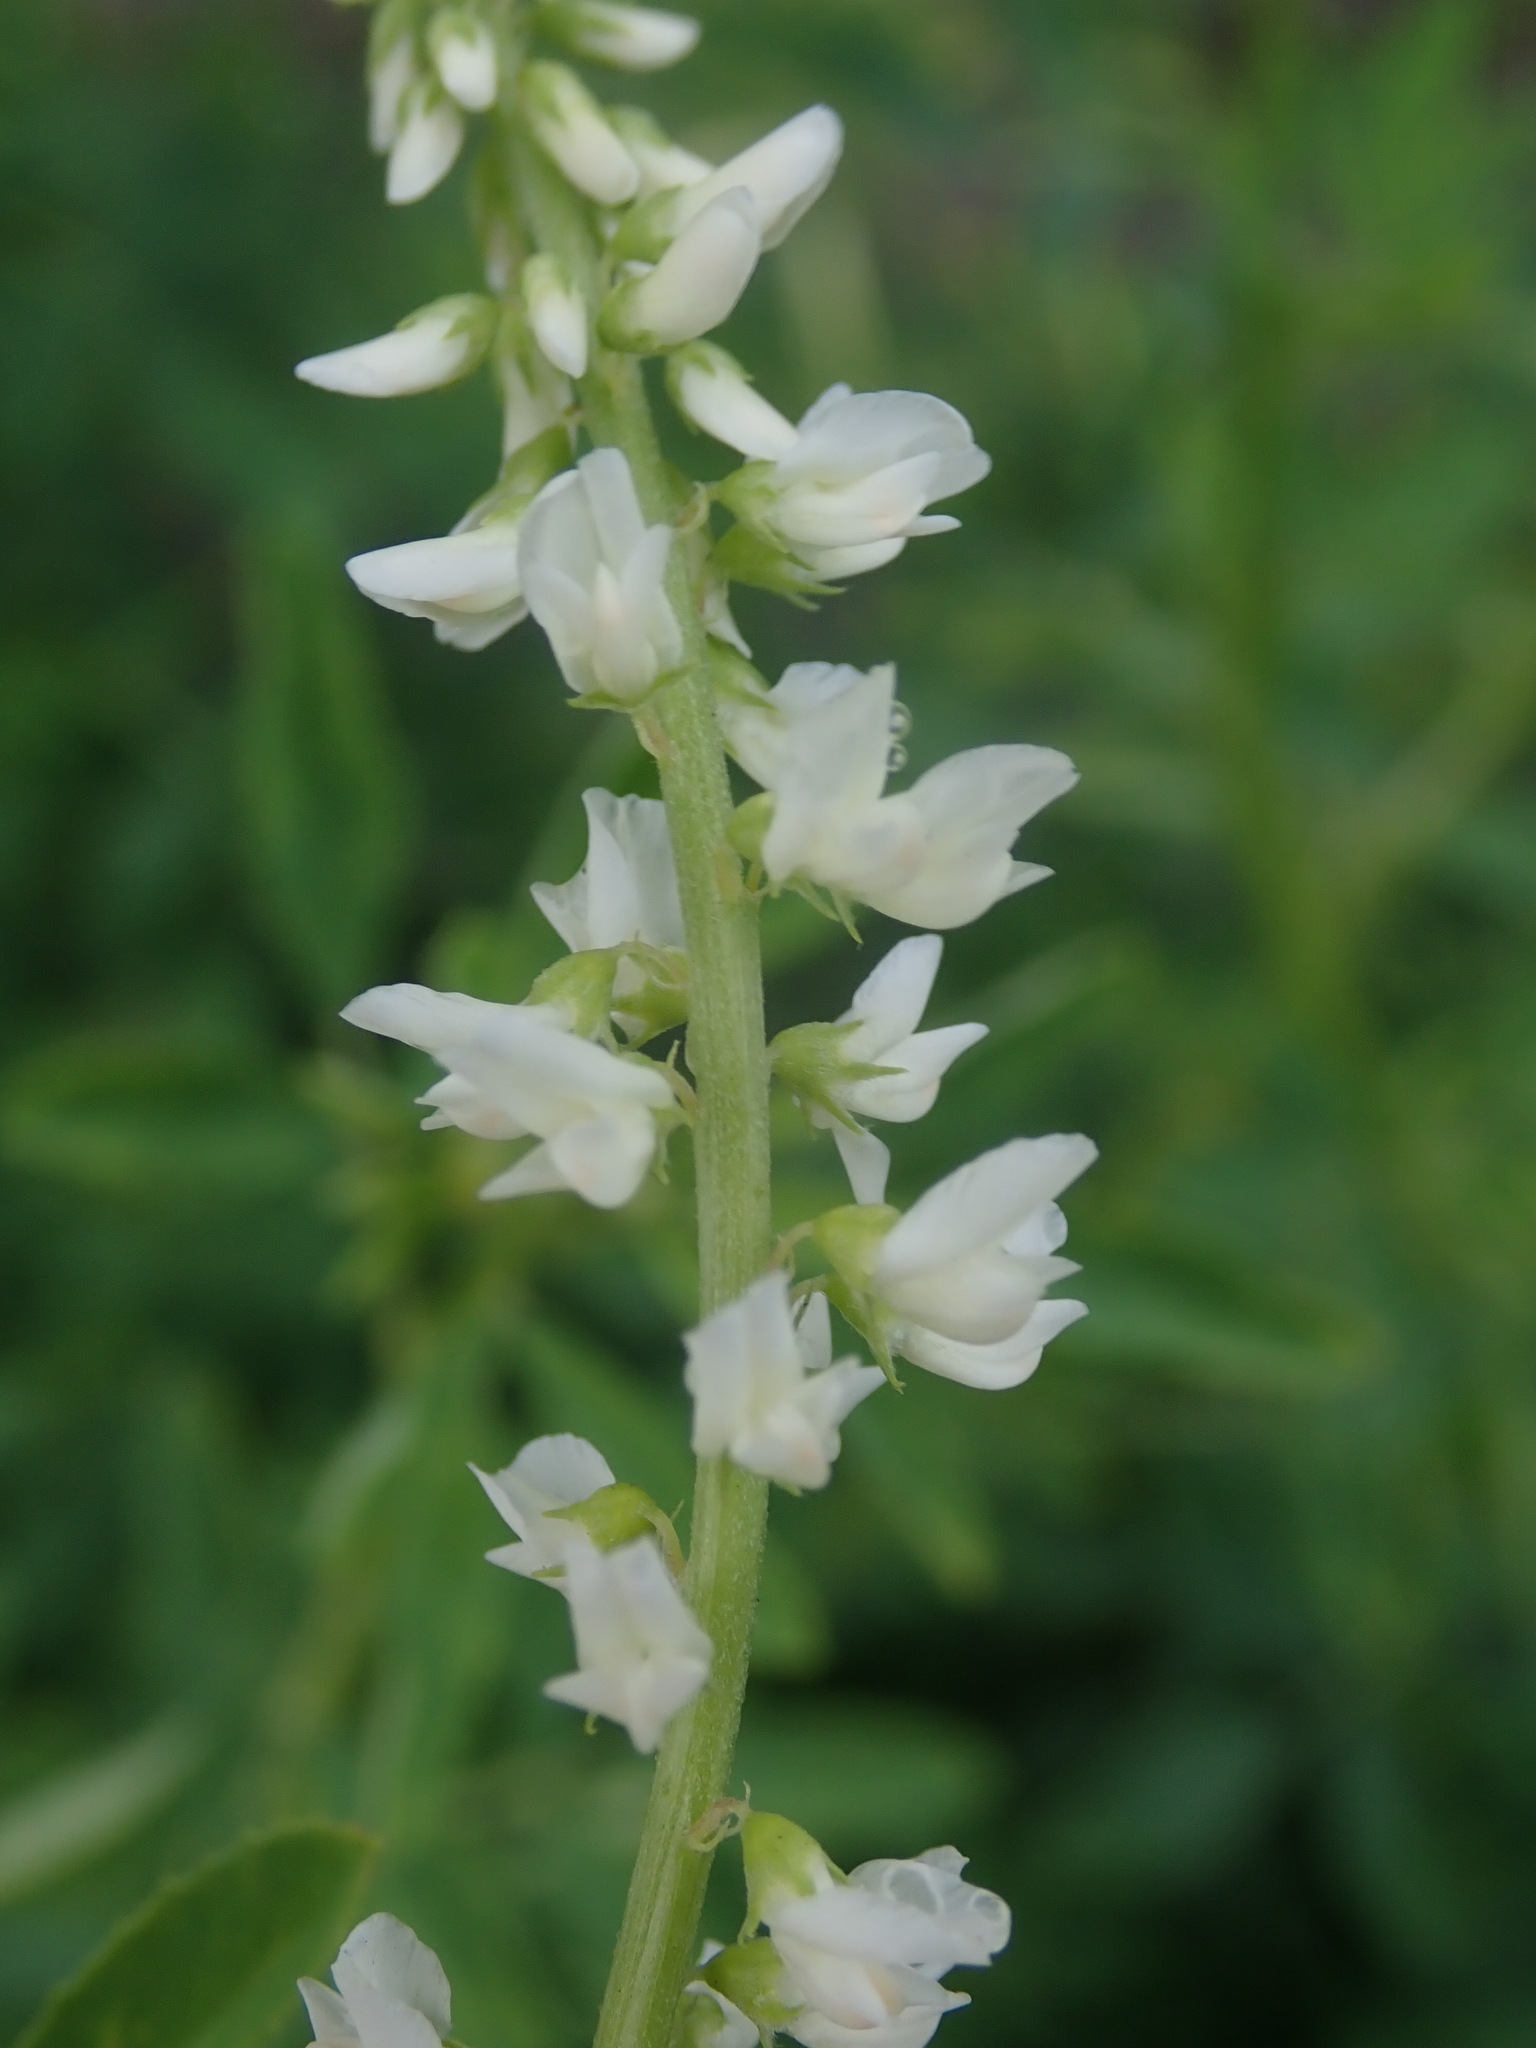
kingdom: Plantae
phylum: Tracheophyta
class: Magnoliopsida
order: Fabales
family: Fabaceae
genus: Melilotus
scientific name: Melilotus albus
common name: White melilot
